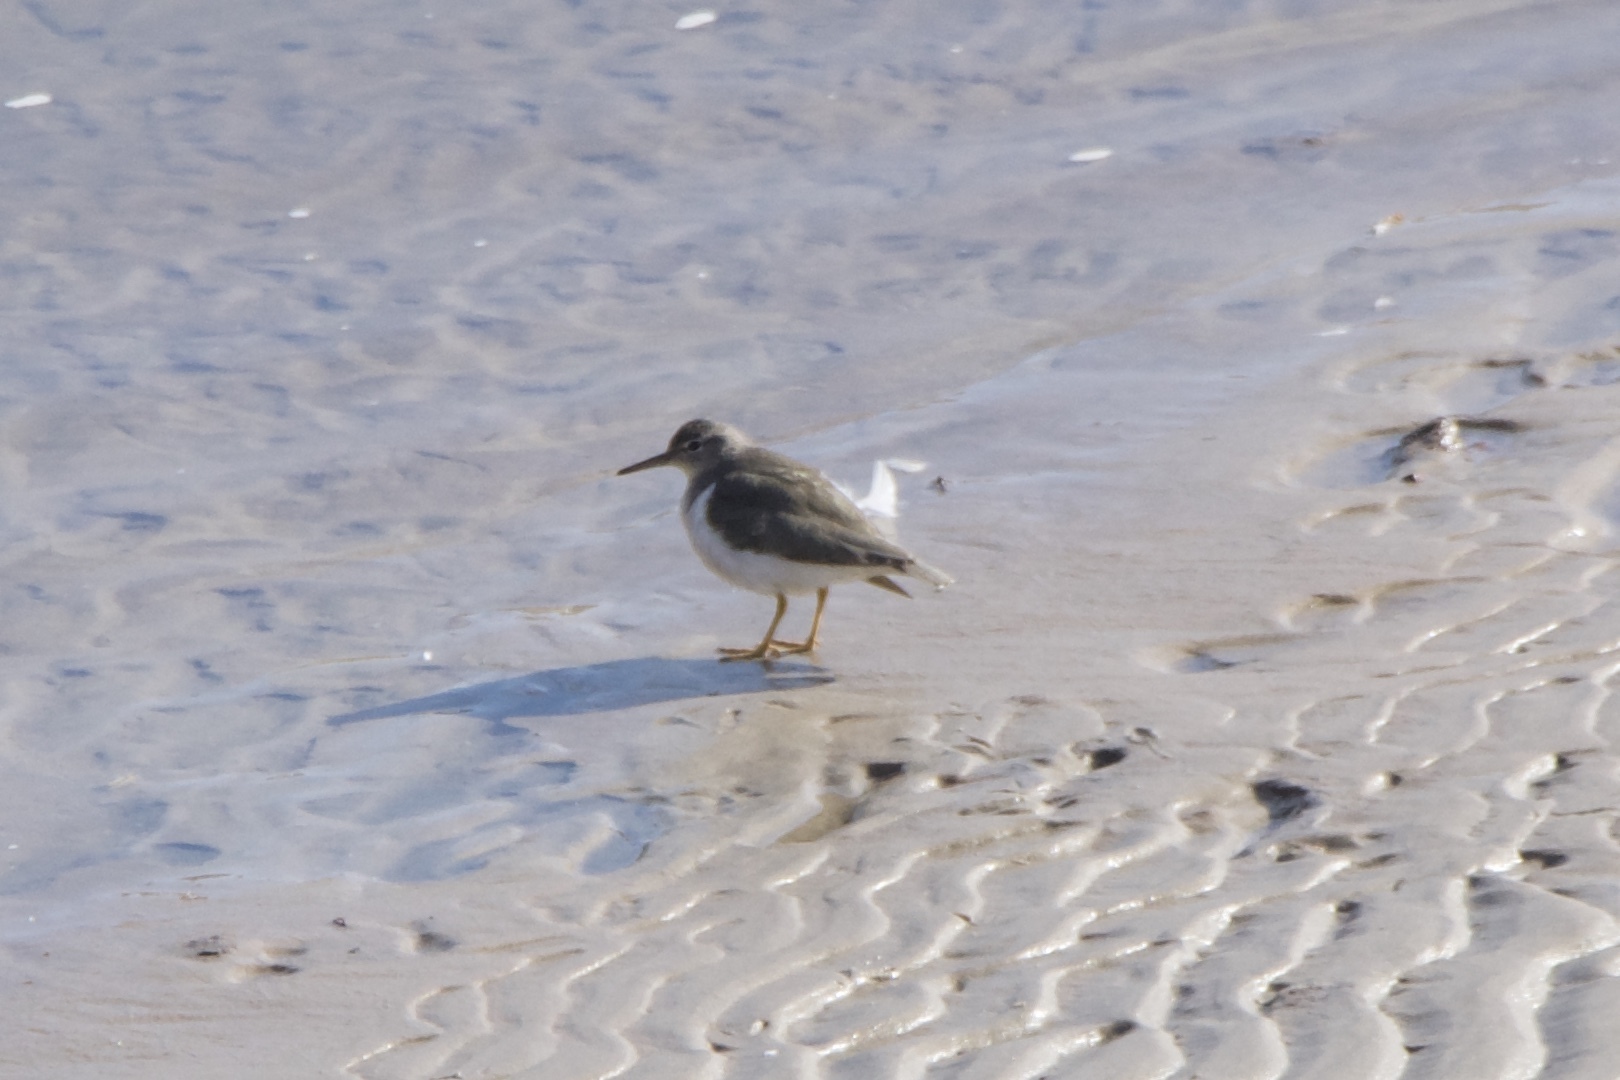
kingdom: Animalia
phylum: Chordata
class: Aves
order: Charadriiformes
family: Scolopacidae
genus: Actitis
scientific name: Actitis macularius
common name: Spotted sandpiper
